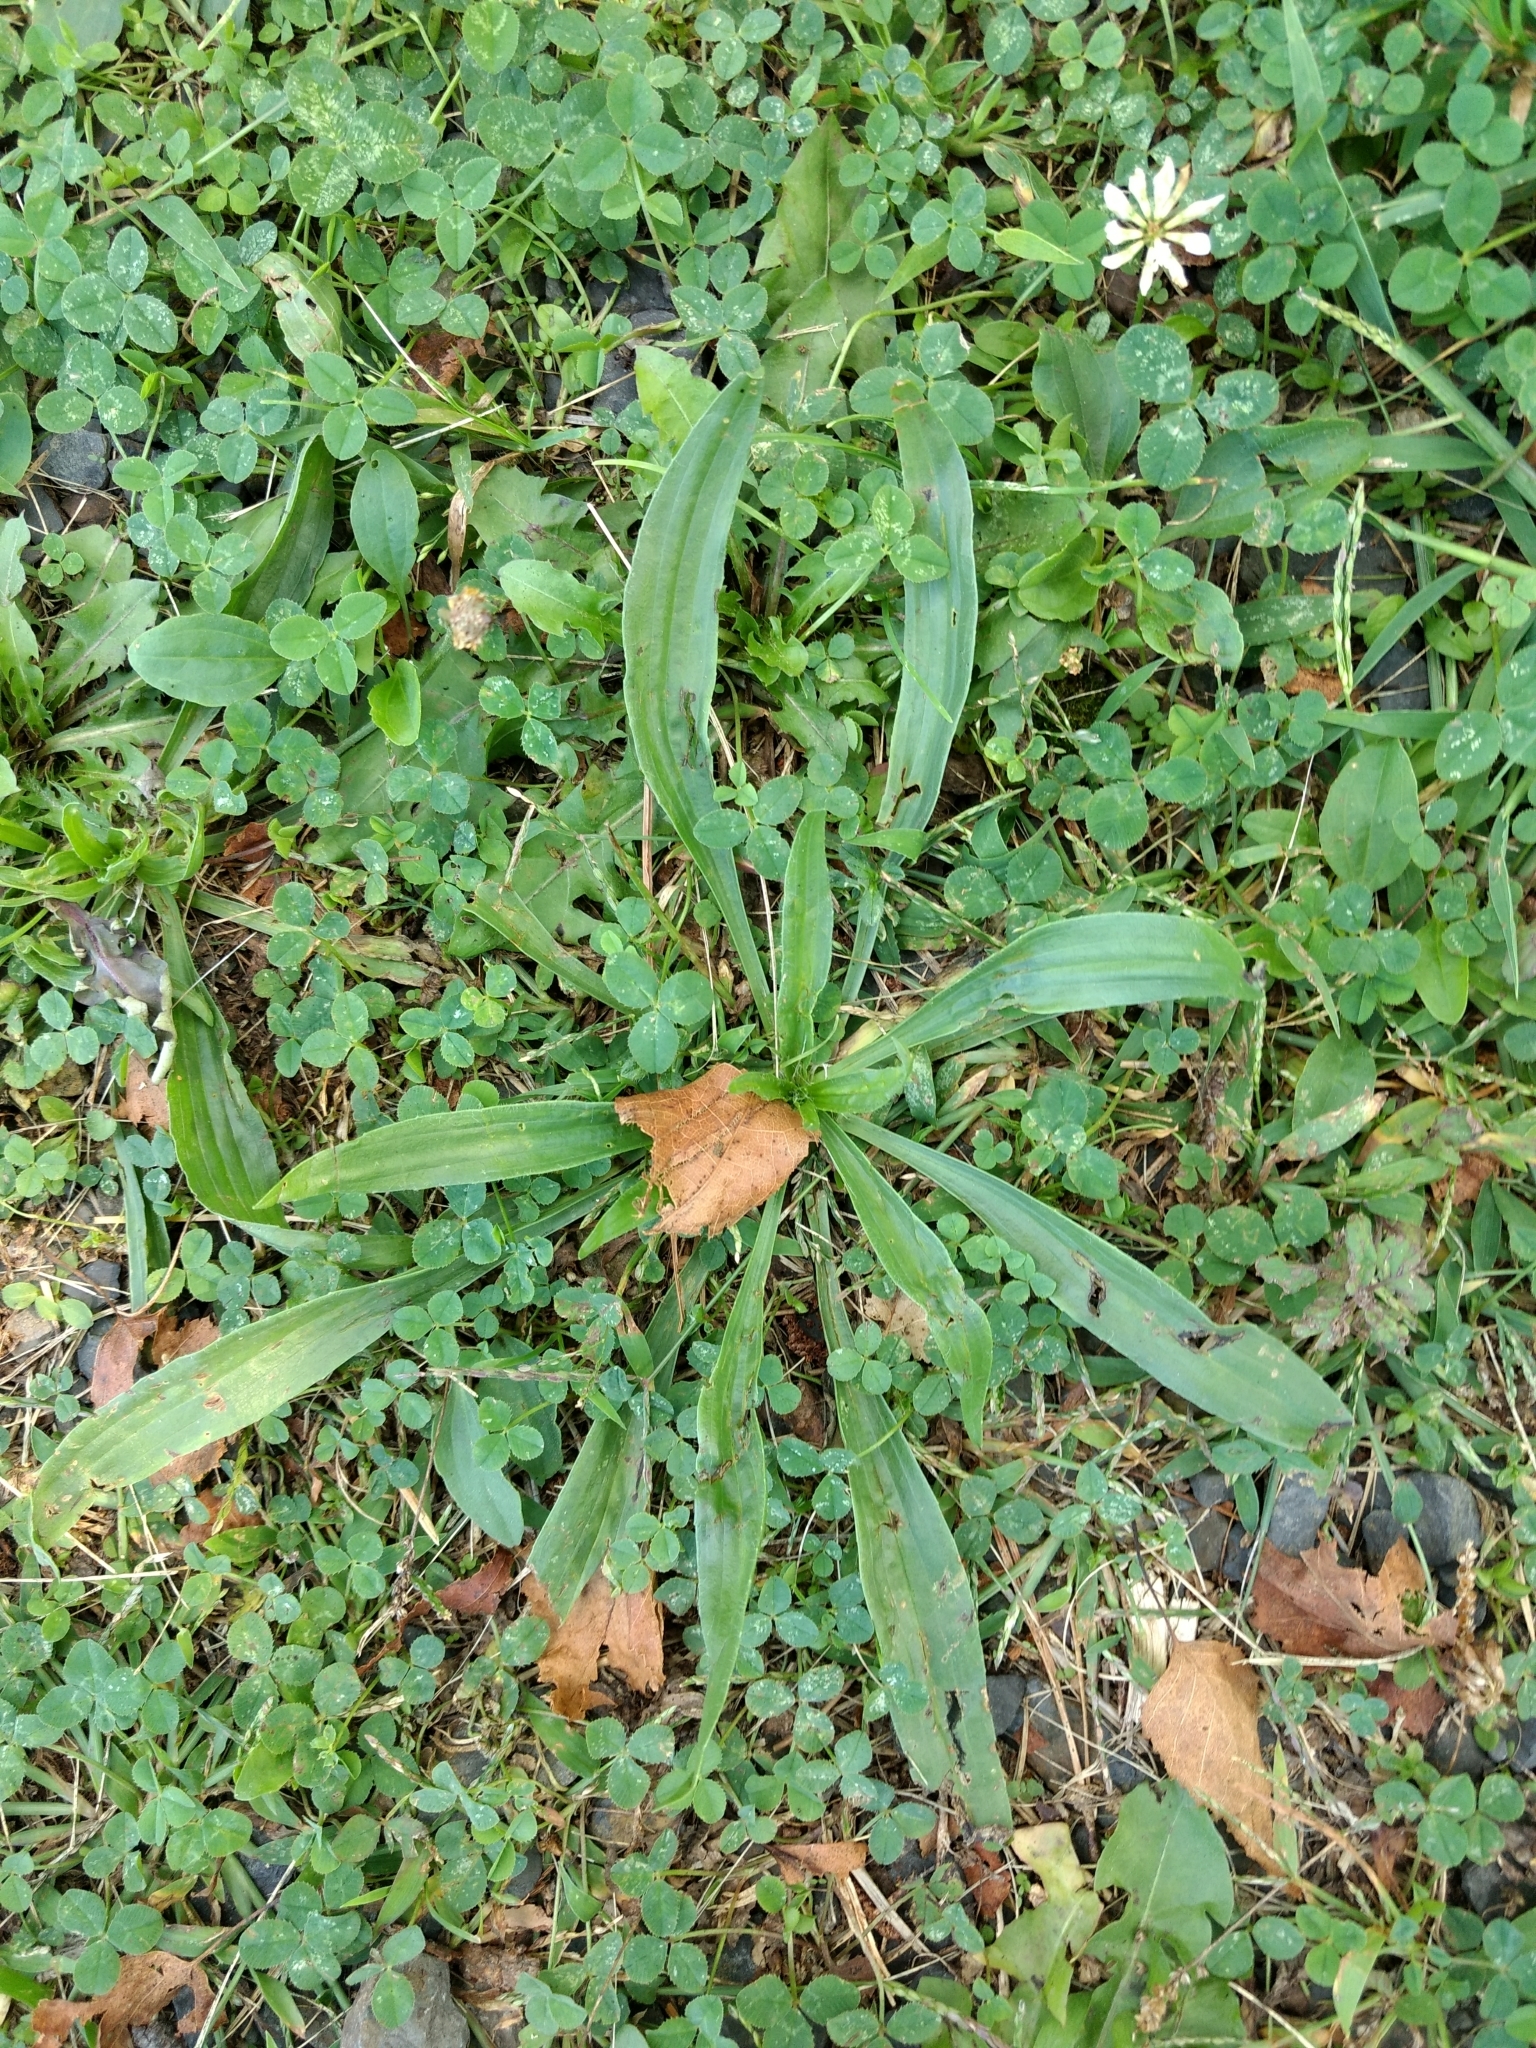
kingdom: Plantae
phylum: Tracheophyta
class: Magnoliopsida
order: Lamiales
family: Plantaginaceae
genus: Plantago
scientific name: Plantago lanceolata
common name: Ribwort plantain
